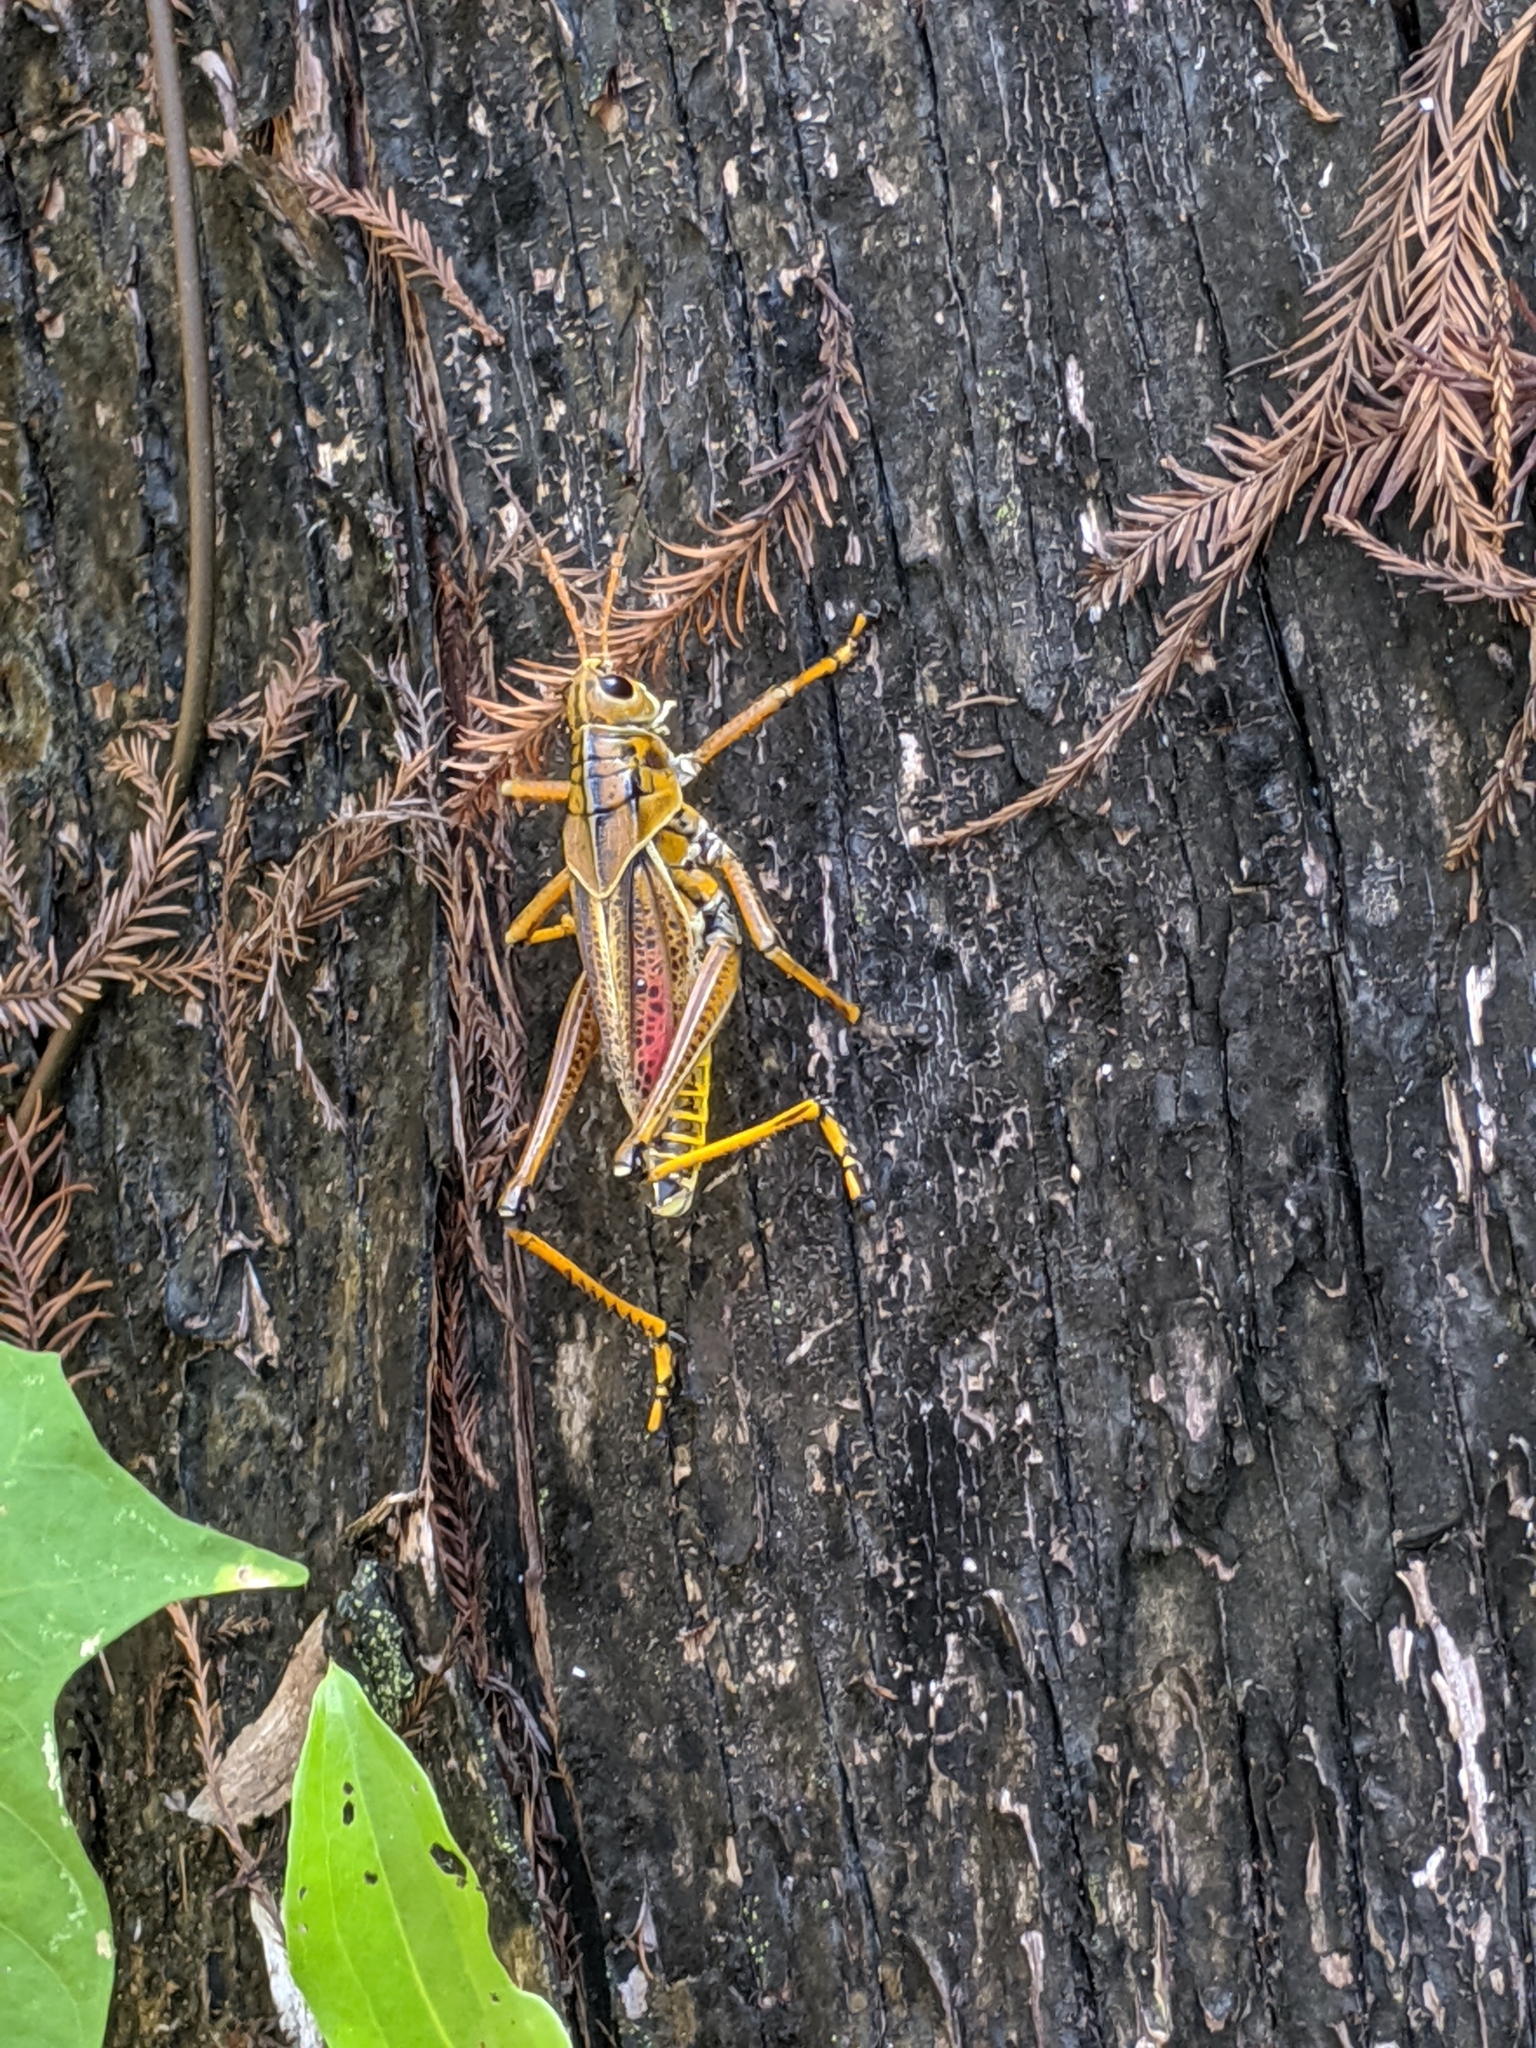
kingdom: Animalia
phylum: Arthropoda
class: Insecta
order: Orthoptera
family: Romaleidae
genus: Romalea
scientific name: Romalea microptera
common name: Eastern lubber grasshopper
